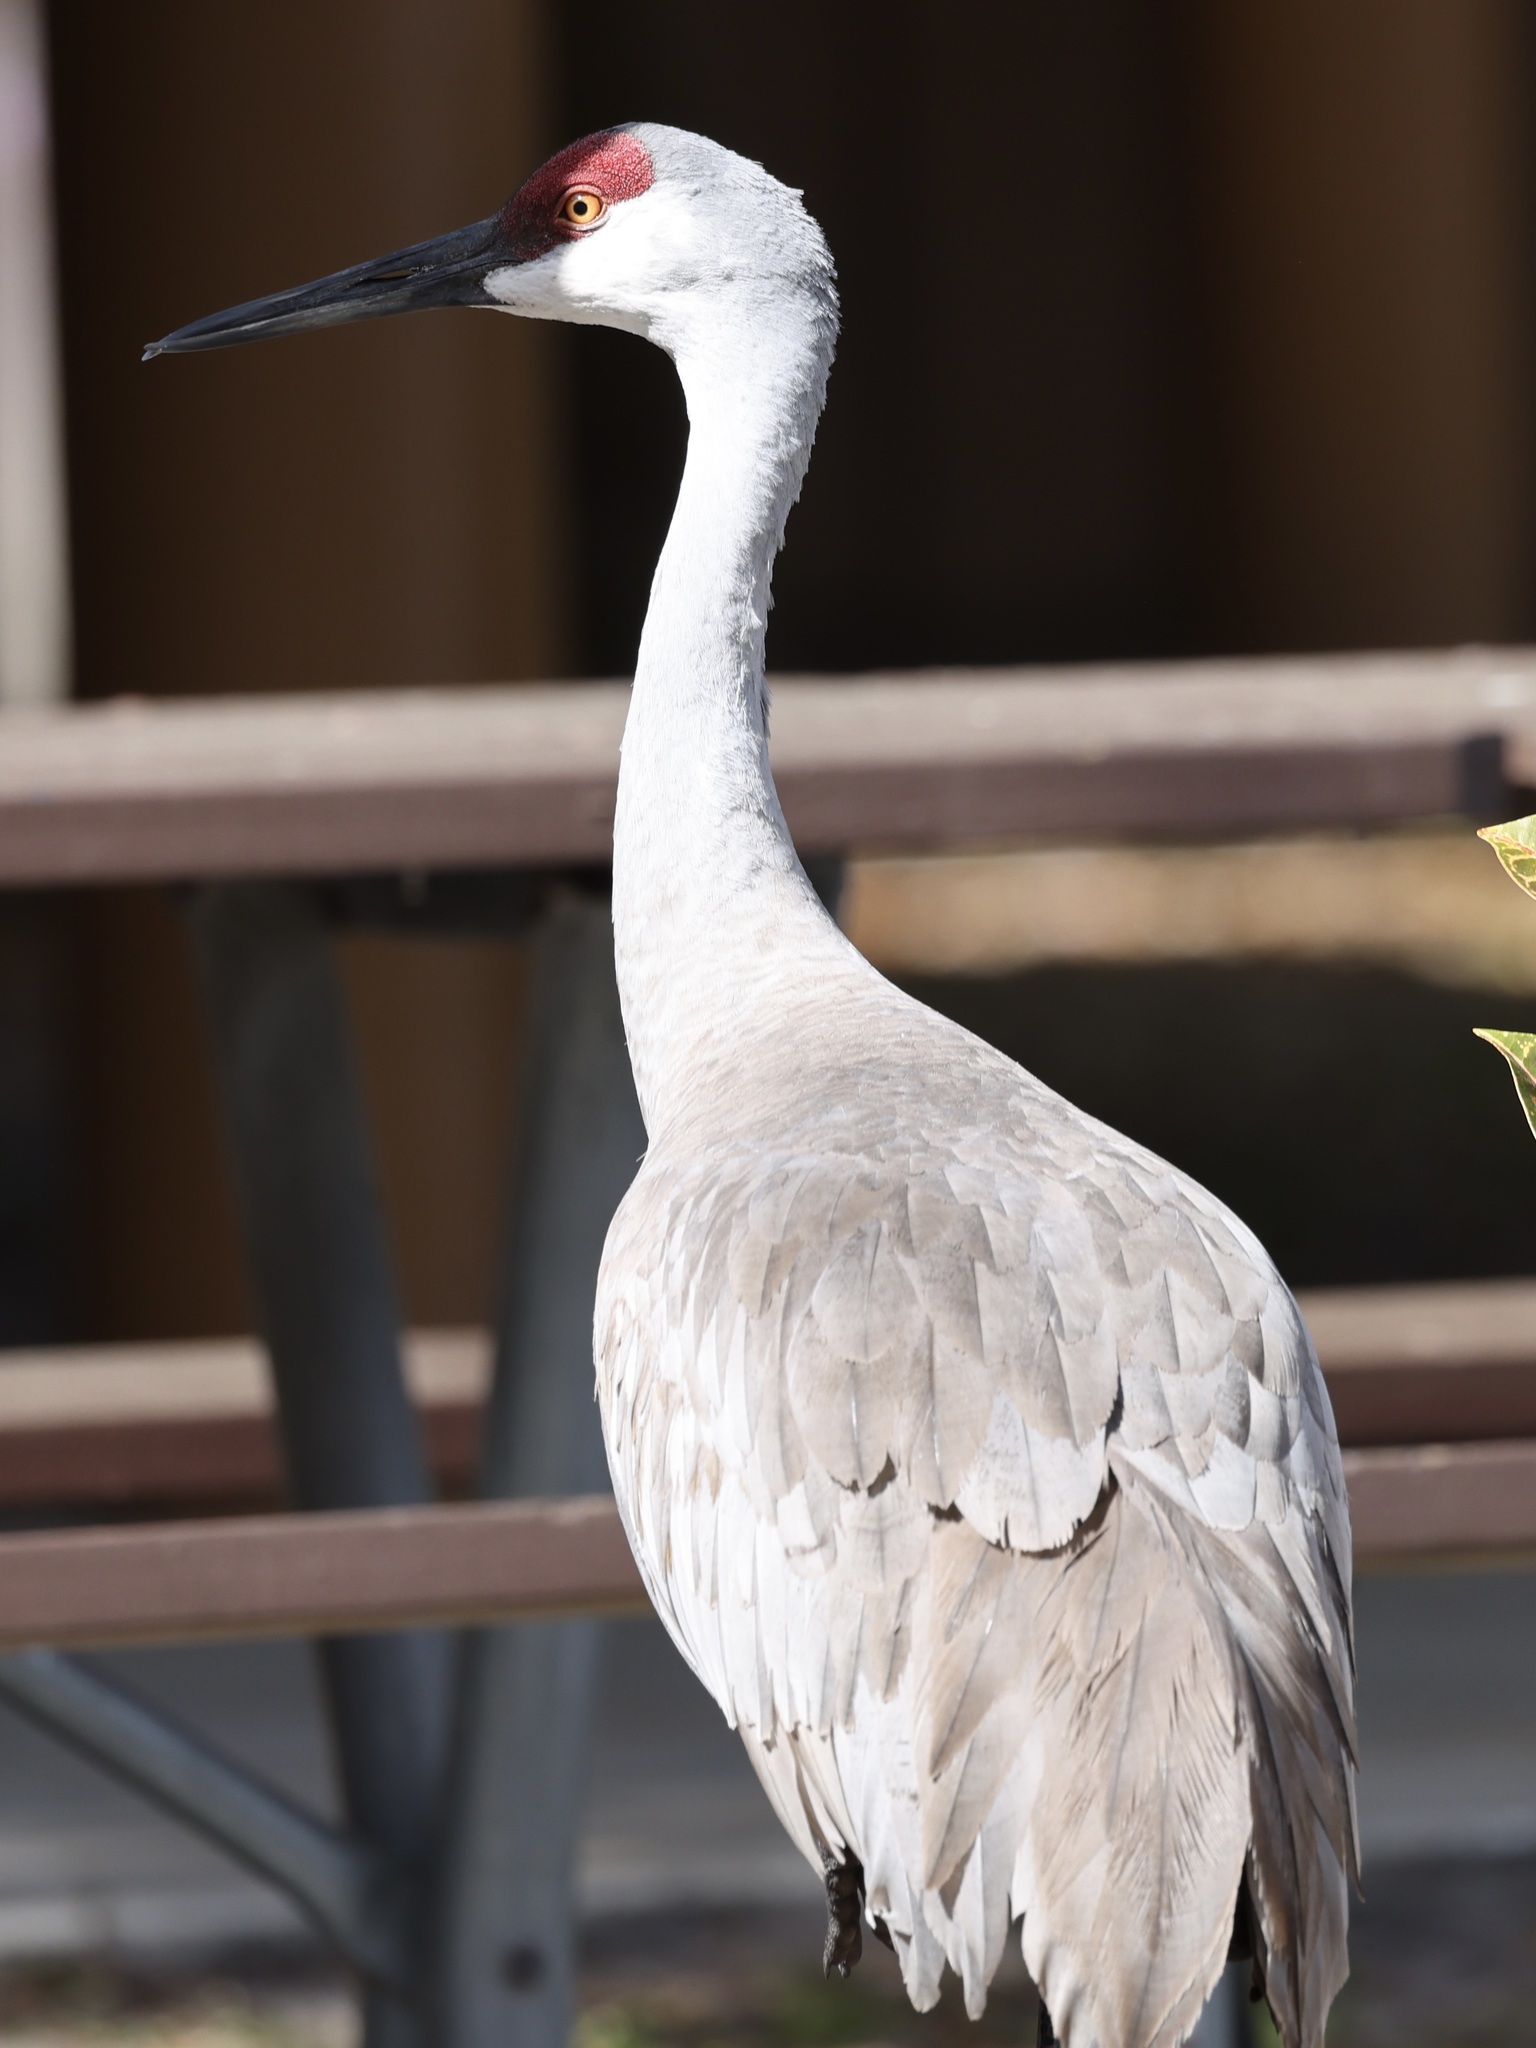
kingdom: Animalia
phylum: Chordata
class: Aves
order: Gruiformes
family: Gruidae
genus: Grus
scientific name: Grus canadensis
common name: Sandhill crane
